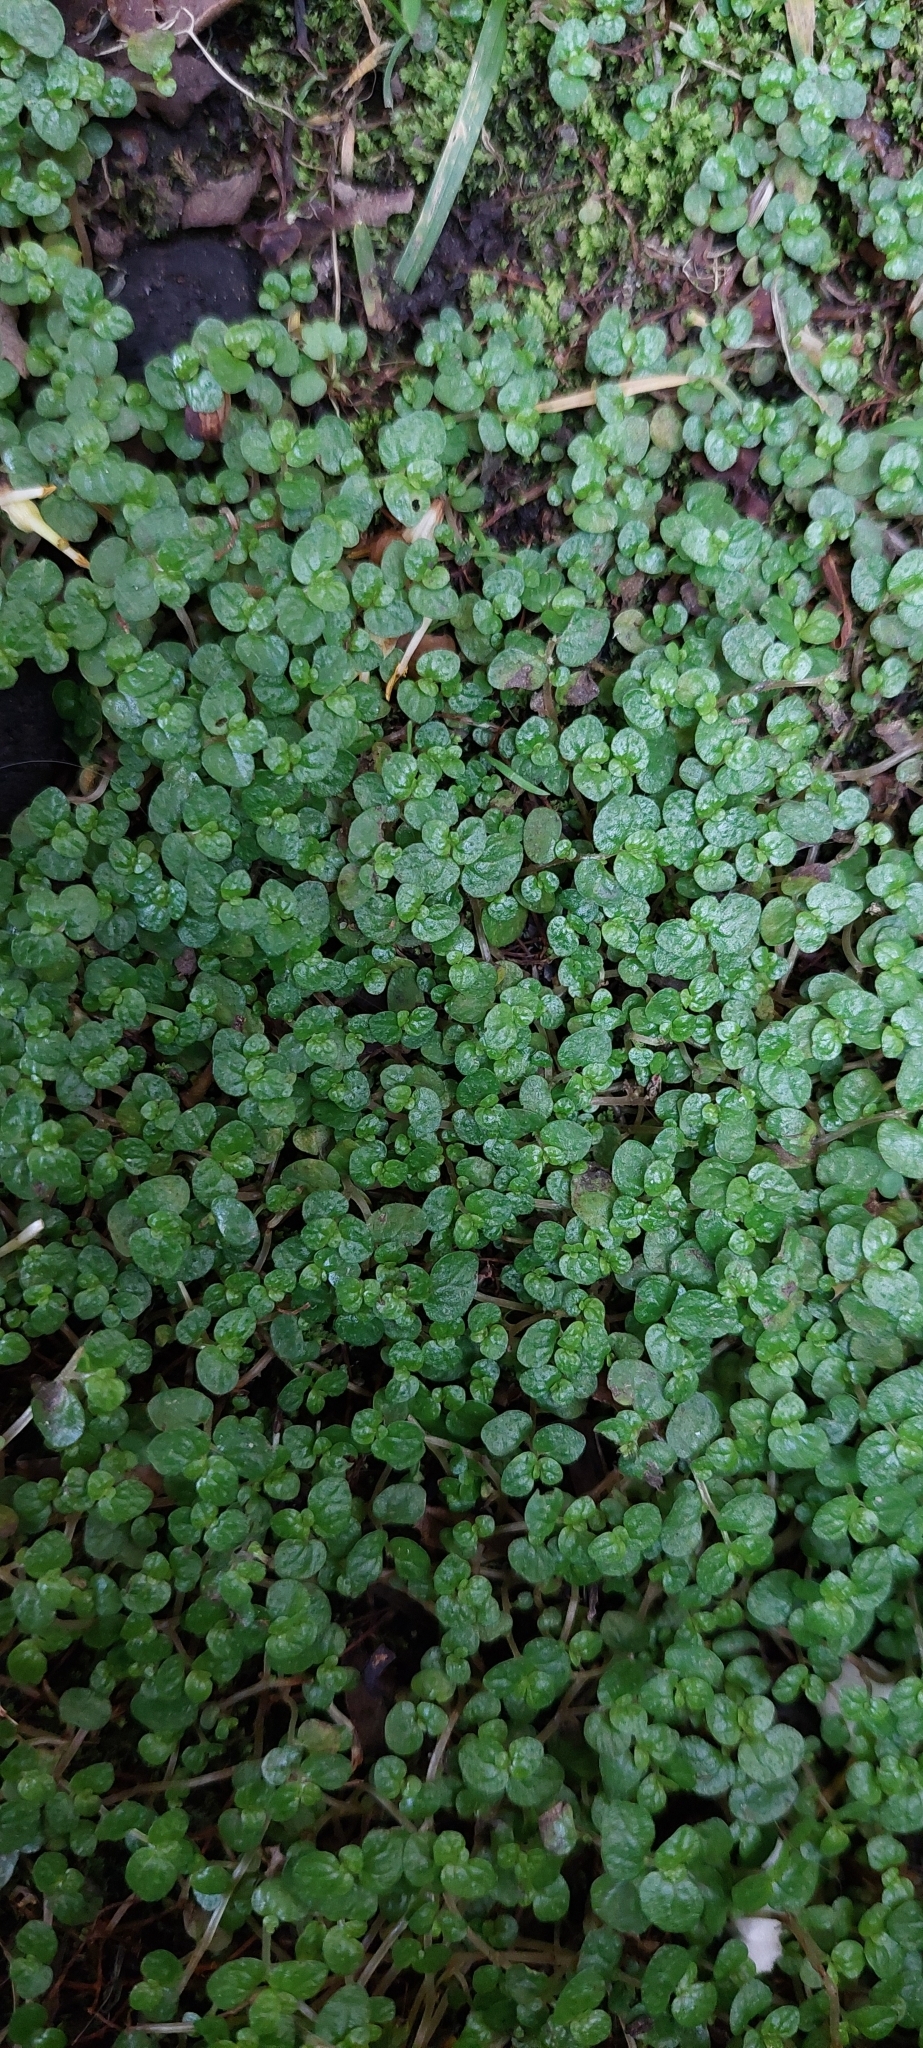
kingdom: Plantae
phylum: Tracheophyta
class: Magnoliopsida
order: Rosales
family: Urticaceae
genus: Soleirolia
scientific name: Soleirolia soleirolii
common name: Mind-your-own-business
